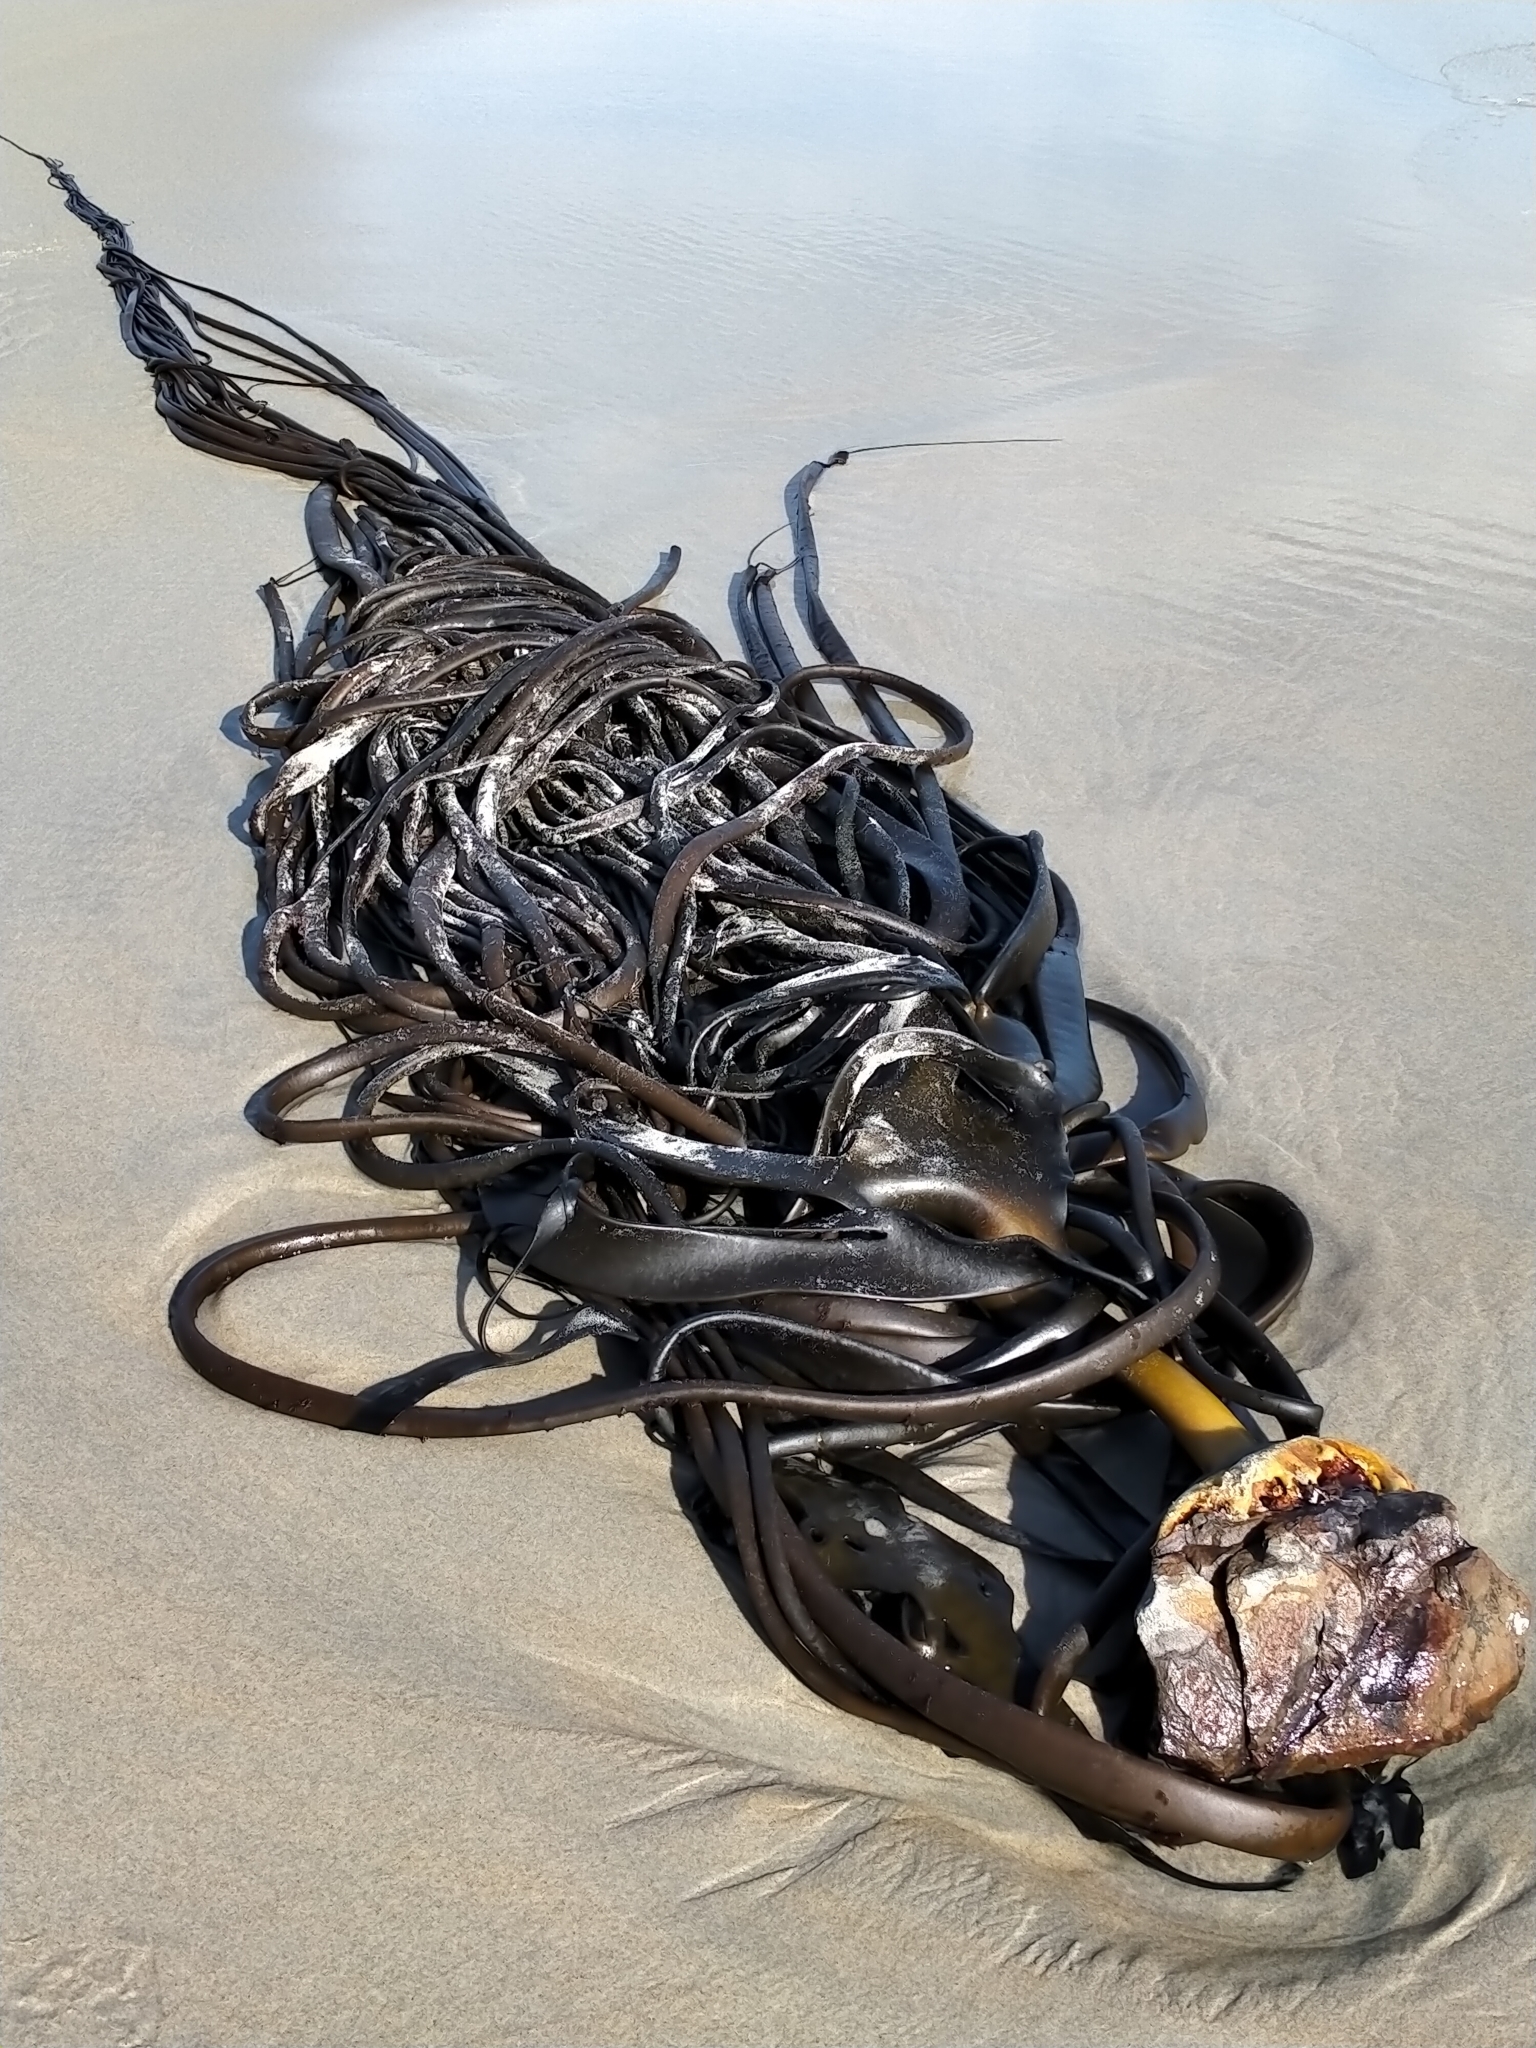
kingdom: Chromista
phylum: Ochrophyta
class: Phaeophyceae
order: Fucales
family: Durvillaeaceae
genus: Durvillaea
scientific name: Durvillaea antarctica
